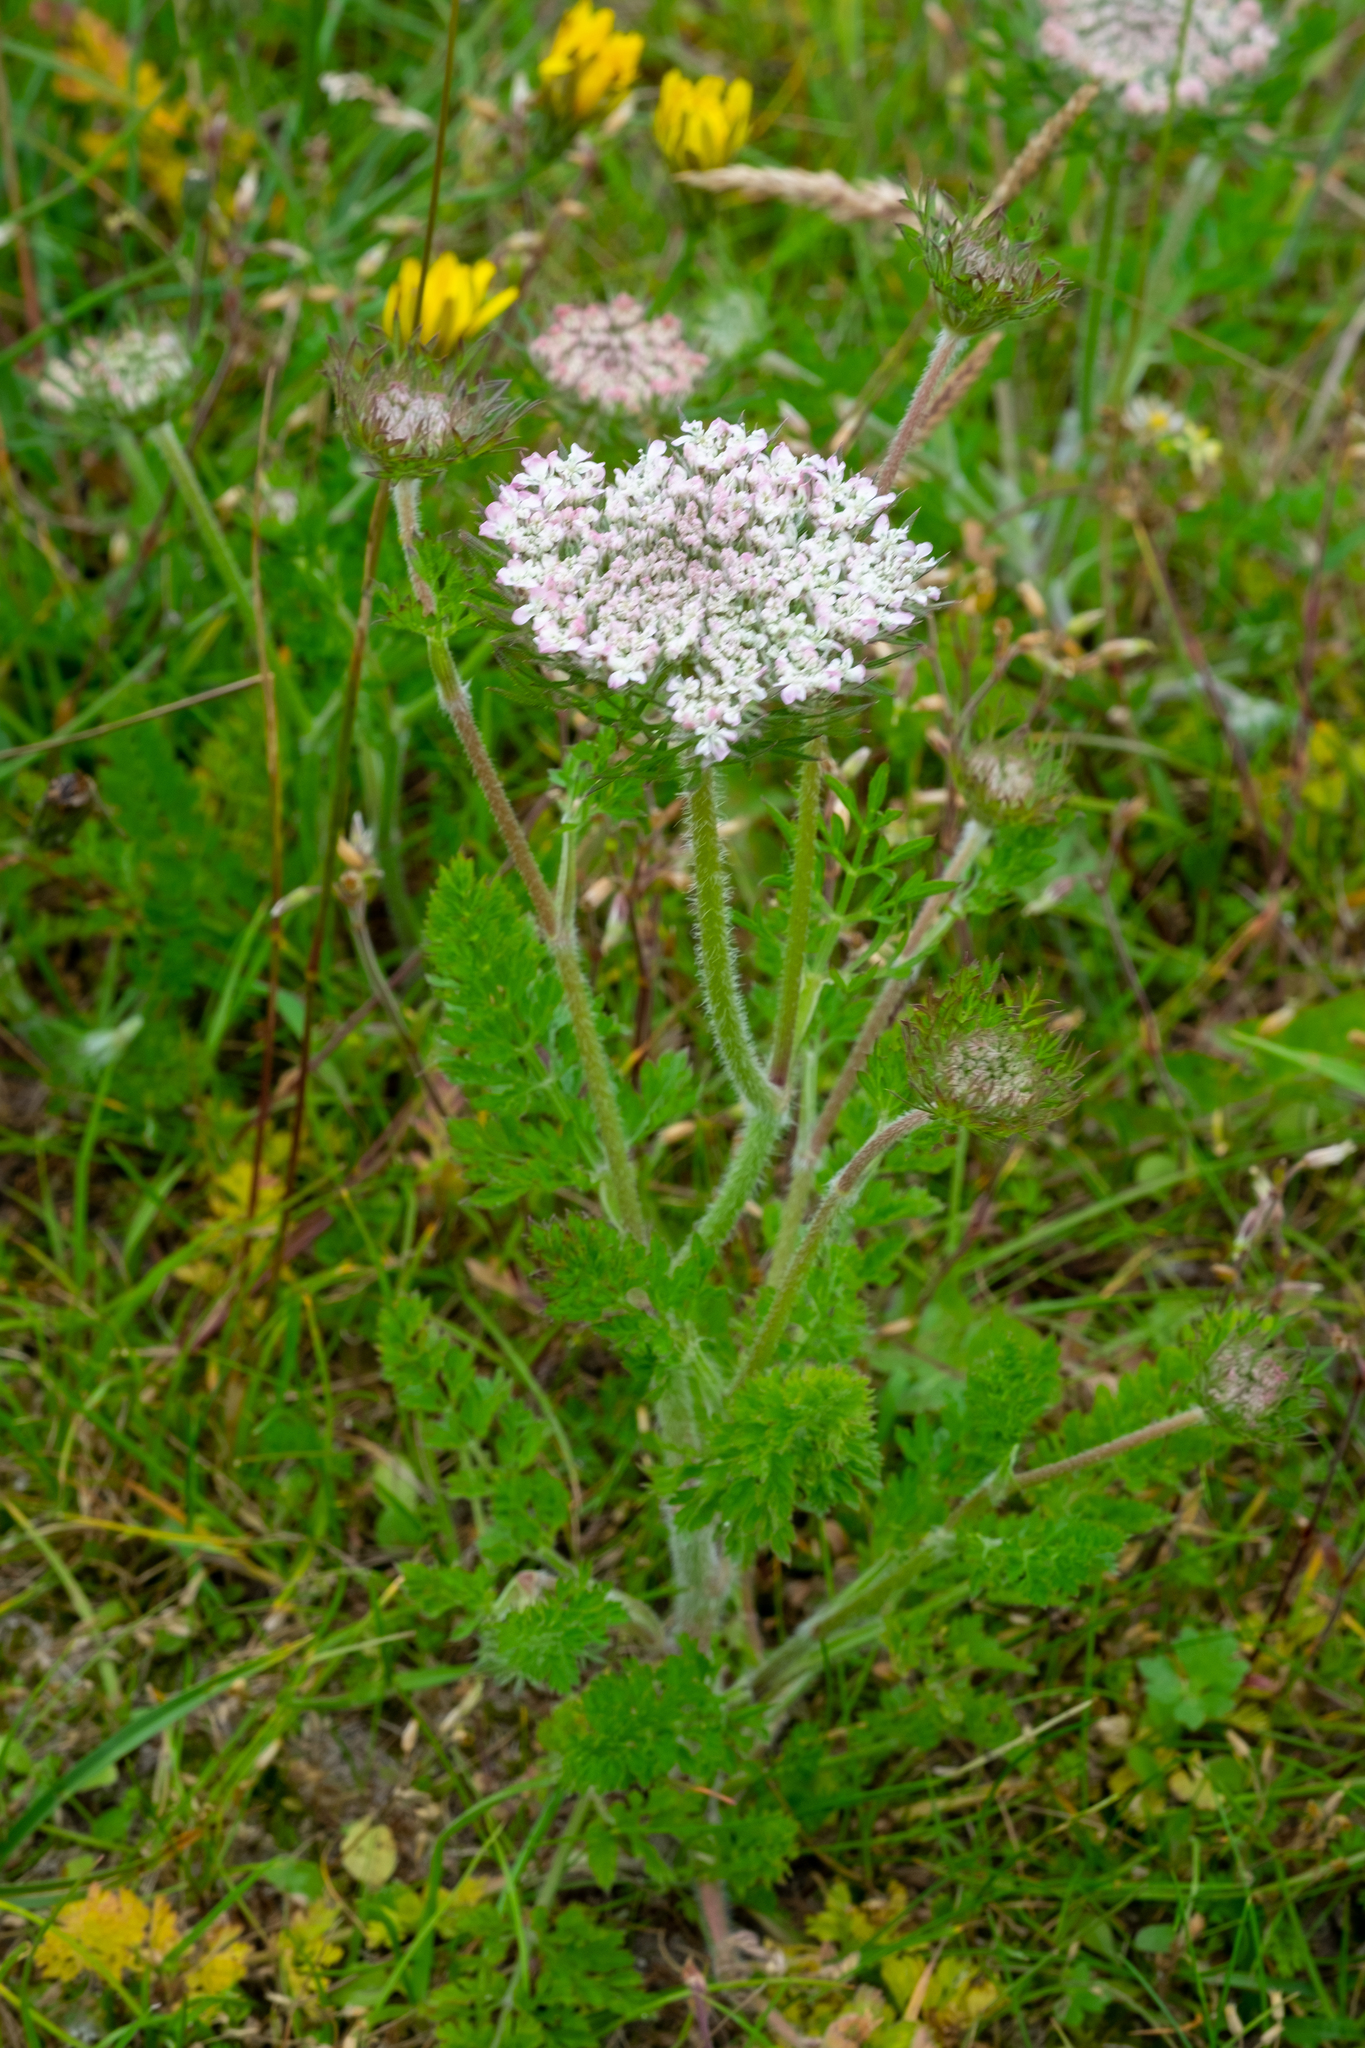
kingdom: Plantae
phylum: Tracheophyta
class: Magnoliopsida
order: Apiales
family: Apiaceae
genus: Daucus
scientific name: Daucus carota
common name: Wild carrot
